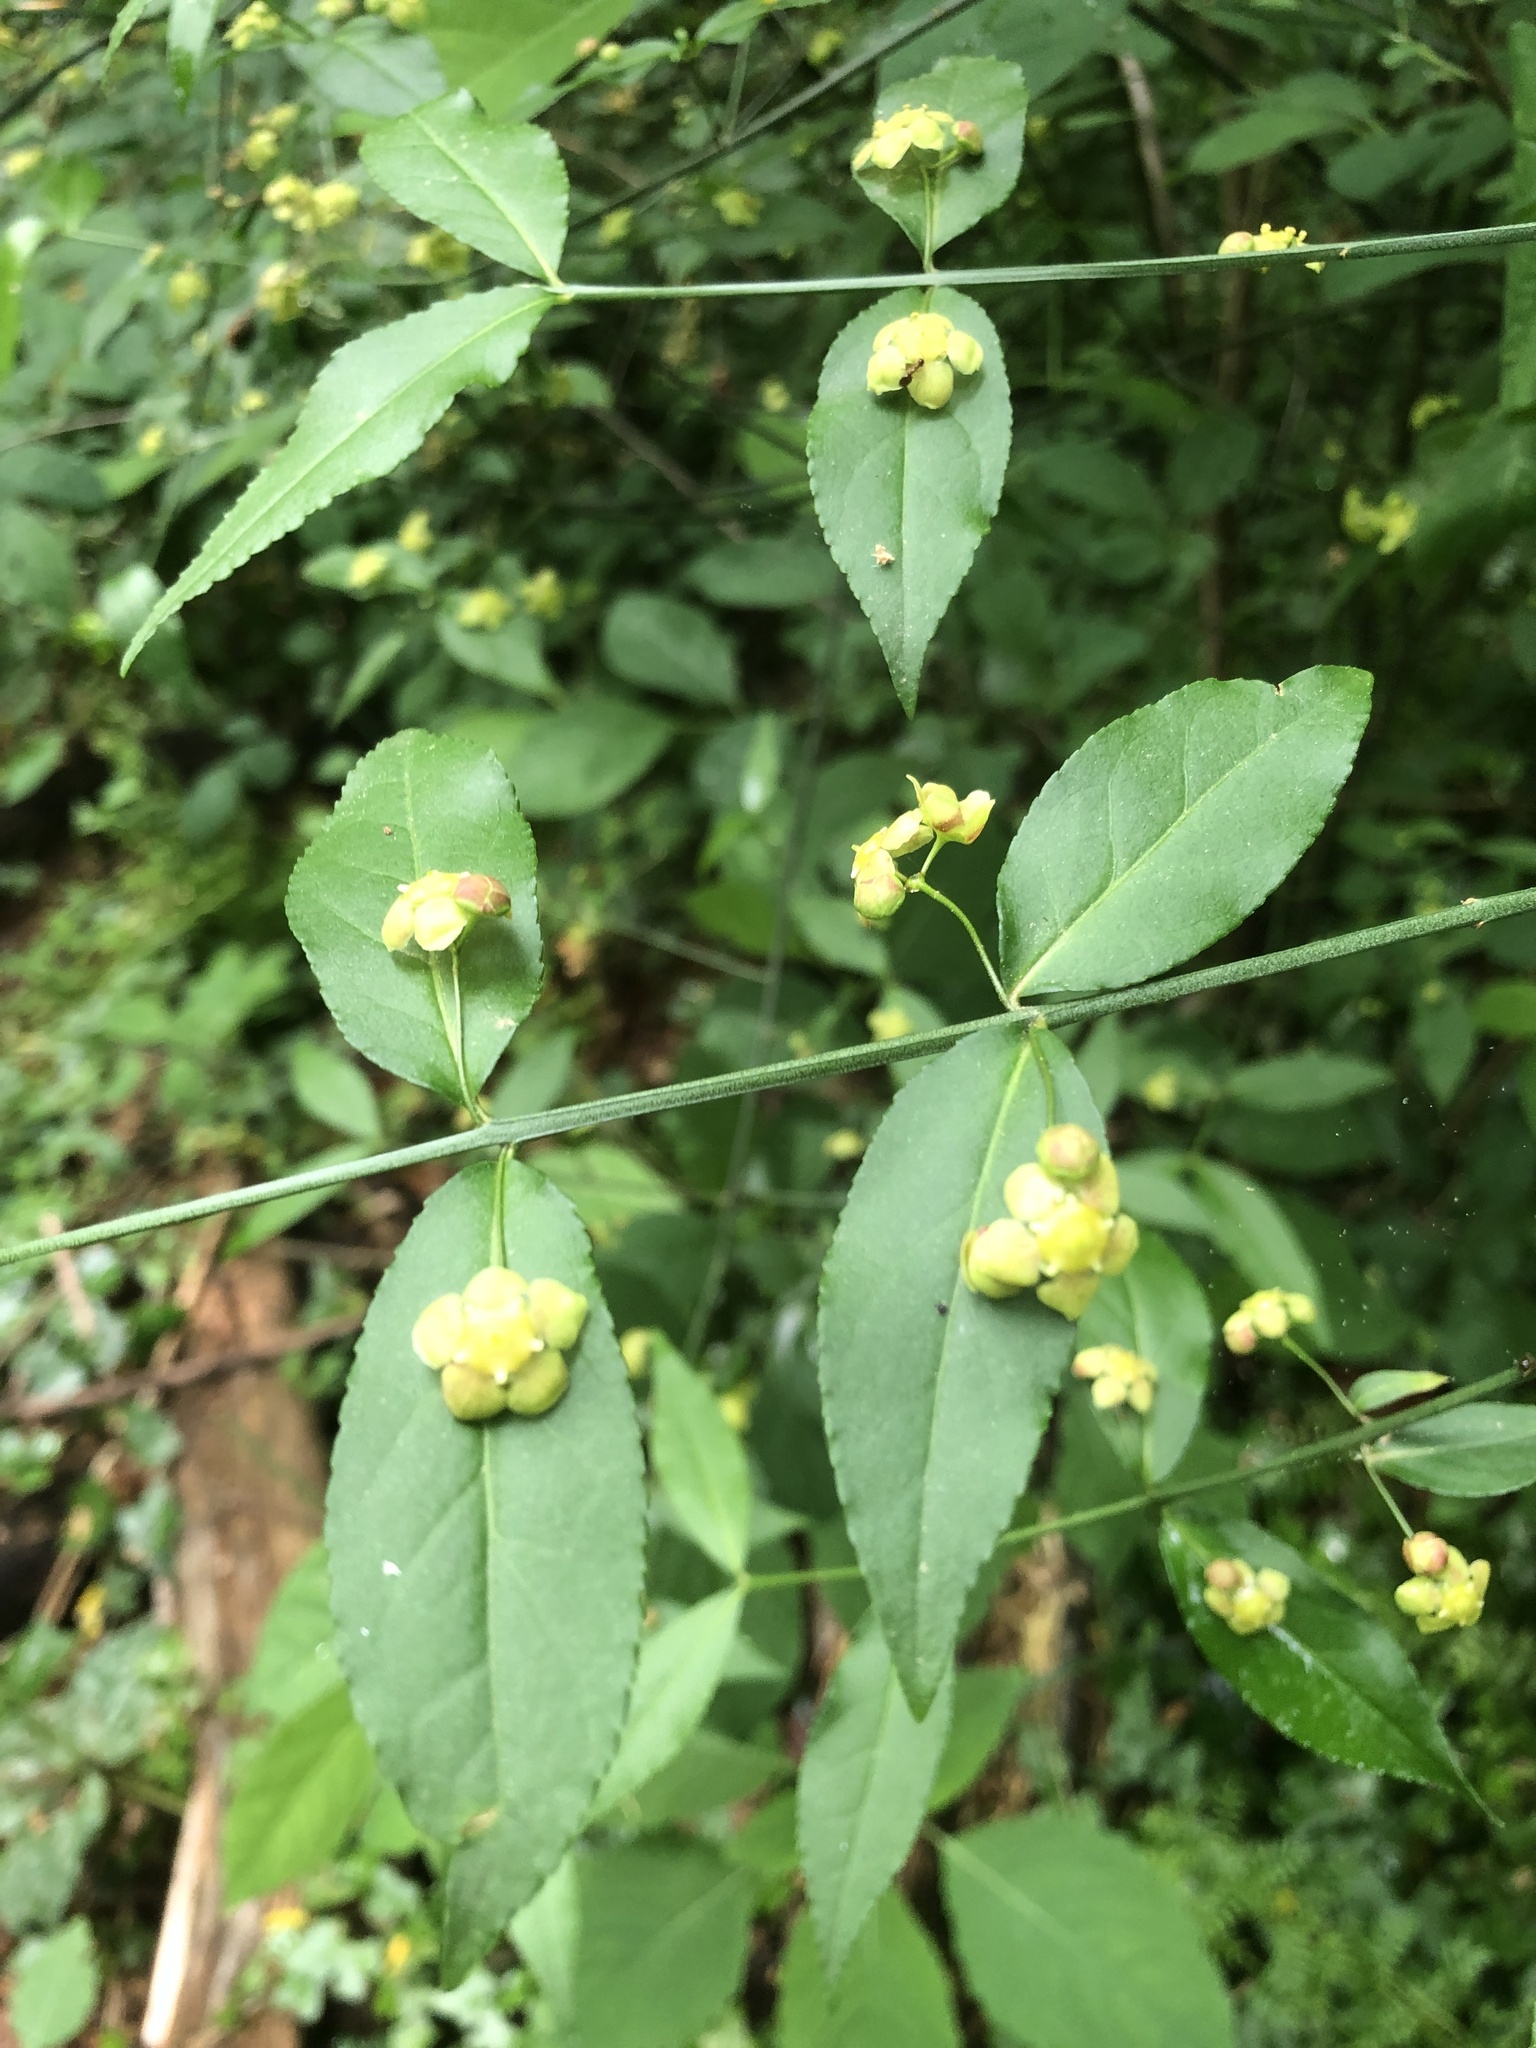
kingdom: Plantae
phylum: Tracheophyta
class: Magnoliopsida
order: Celastrales
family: Celastraceae
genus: Euonymus
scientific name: Euonymus americanus
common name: Bursting-heart
